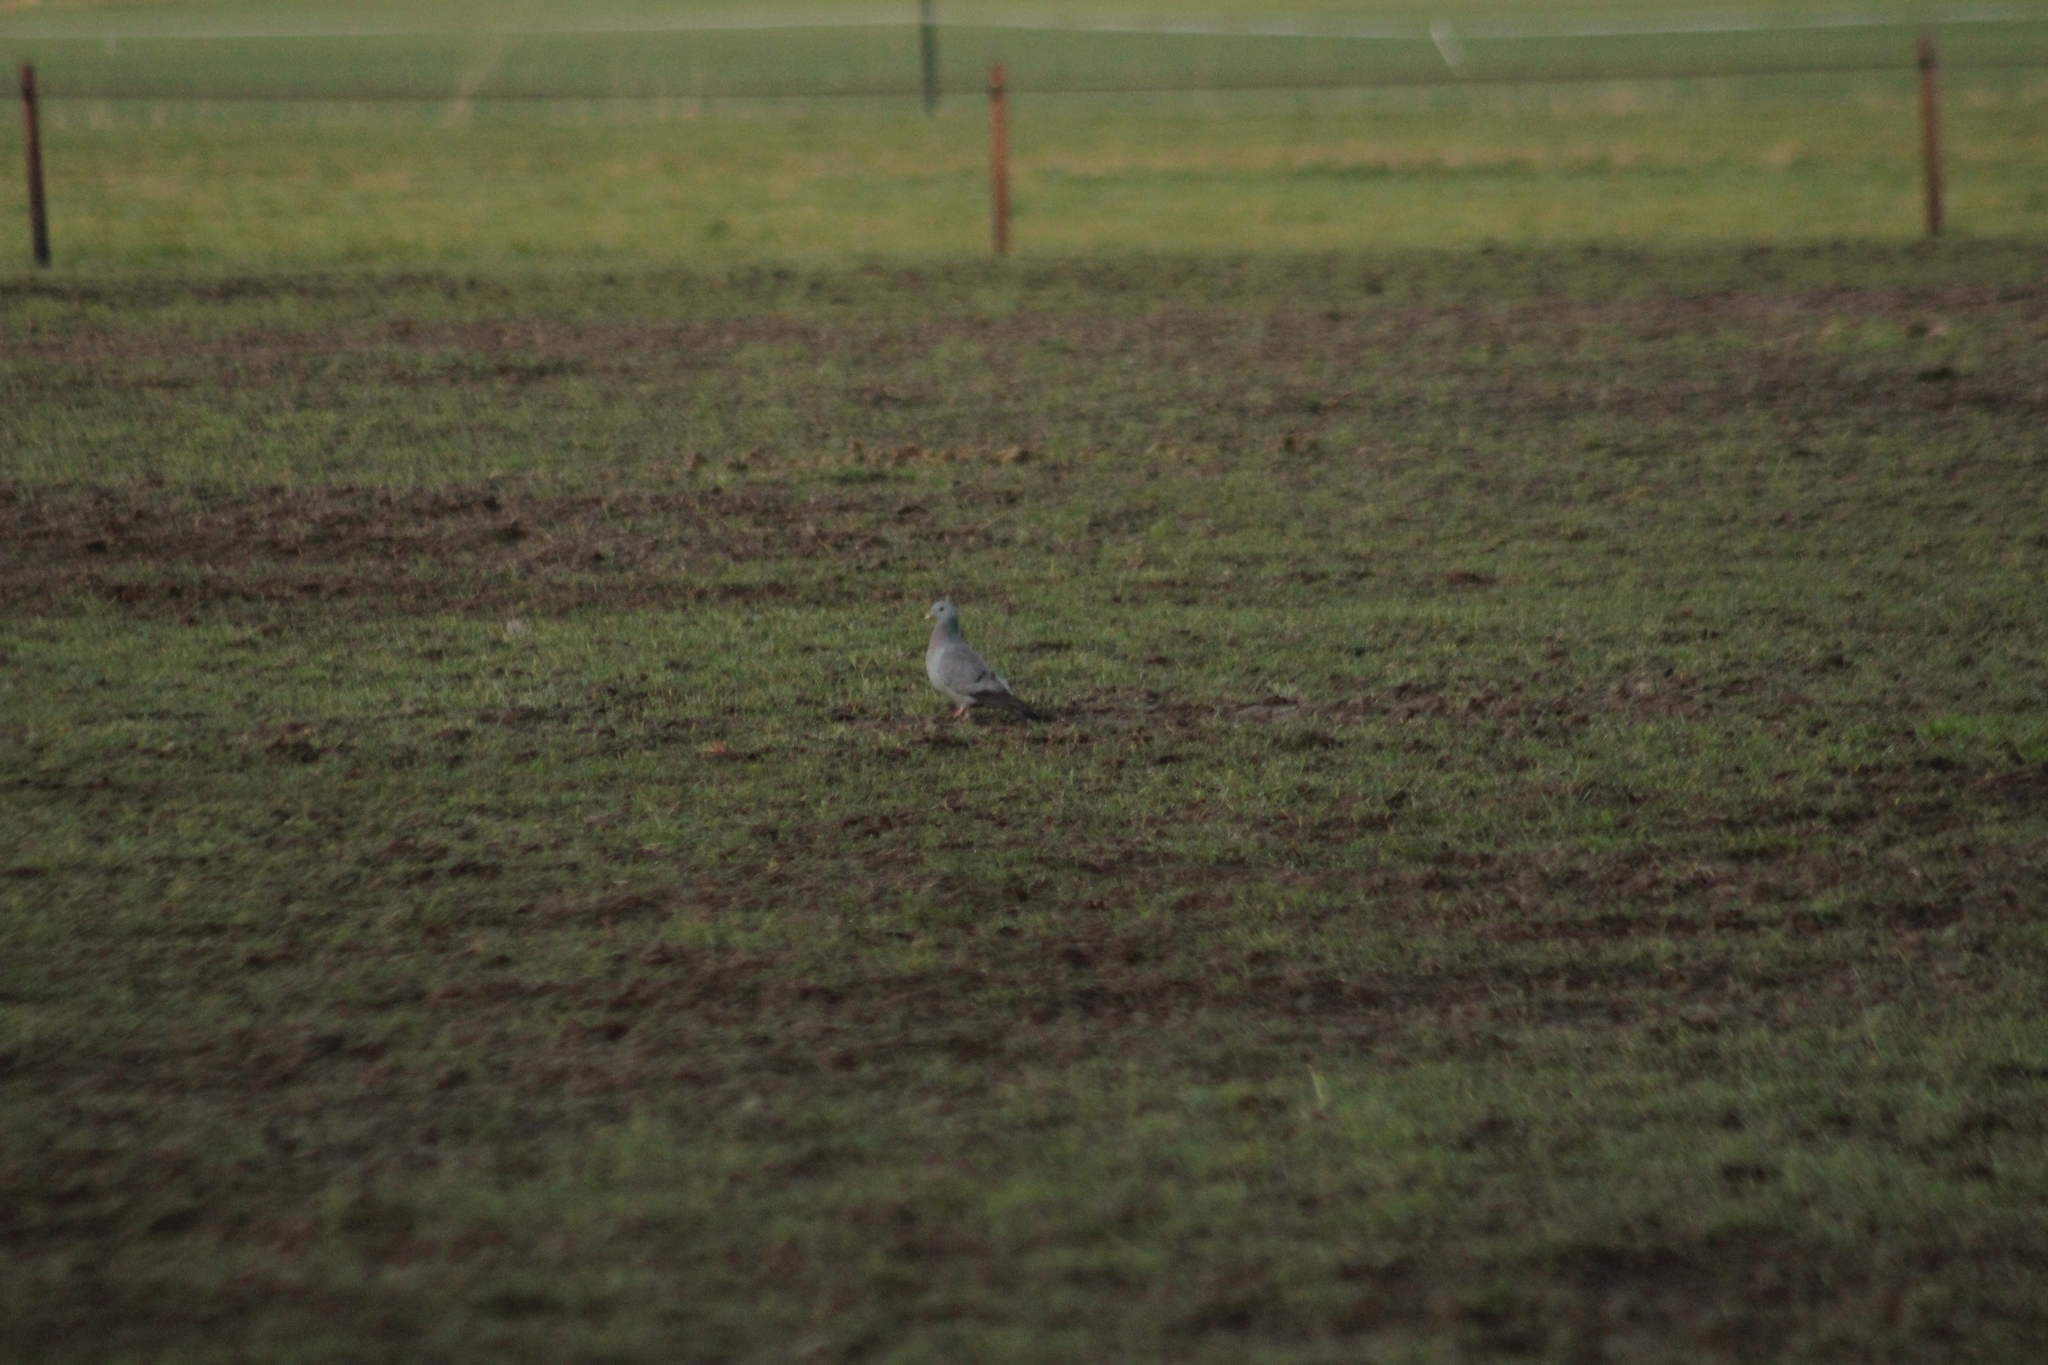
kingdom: Animalia
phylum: Chordata
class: Aves
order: Columbiformes
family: Columbidae
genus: Columba
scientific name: Columba oenas
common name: Stock dove
